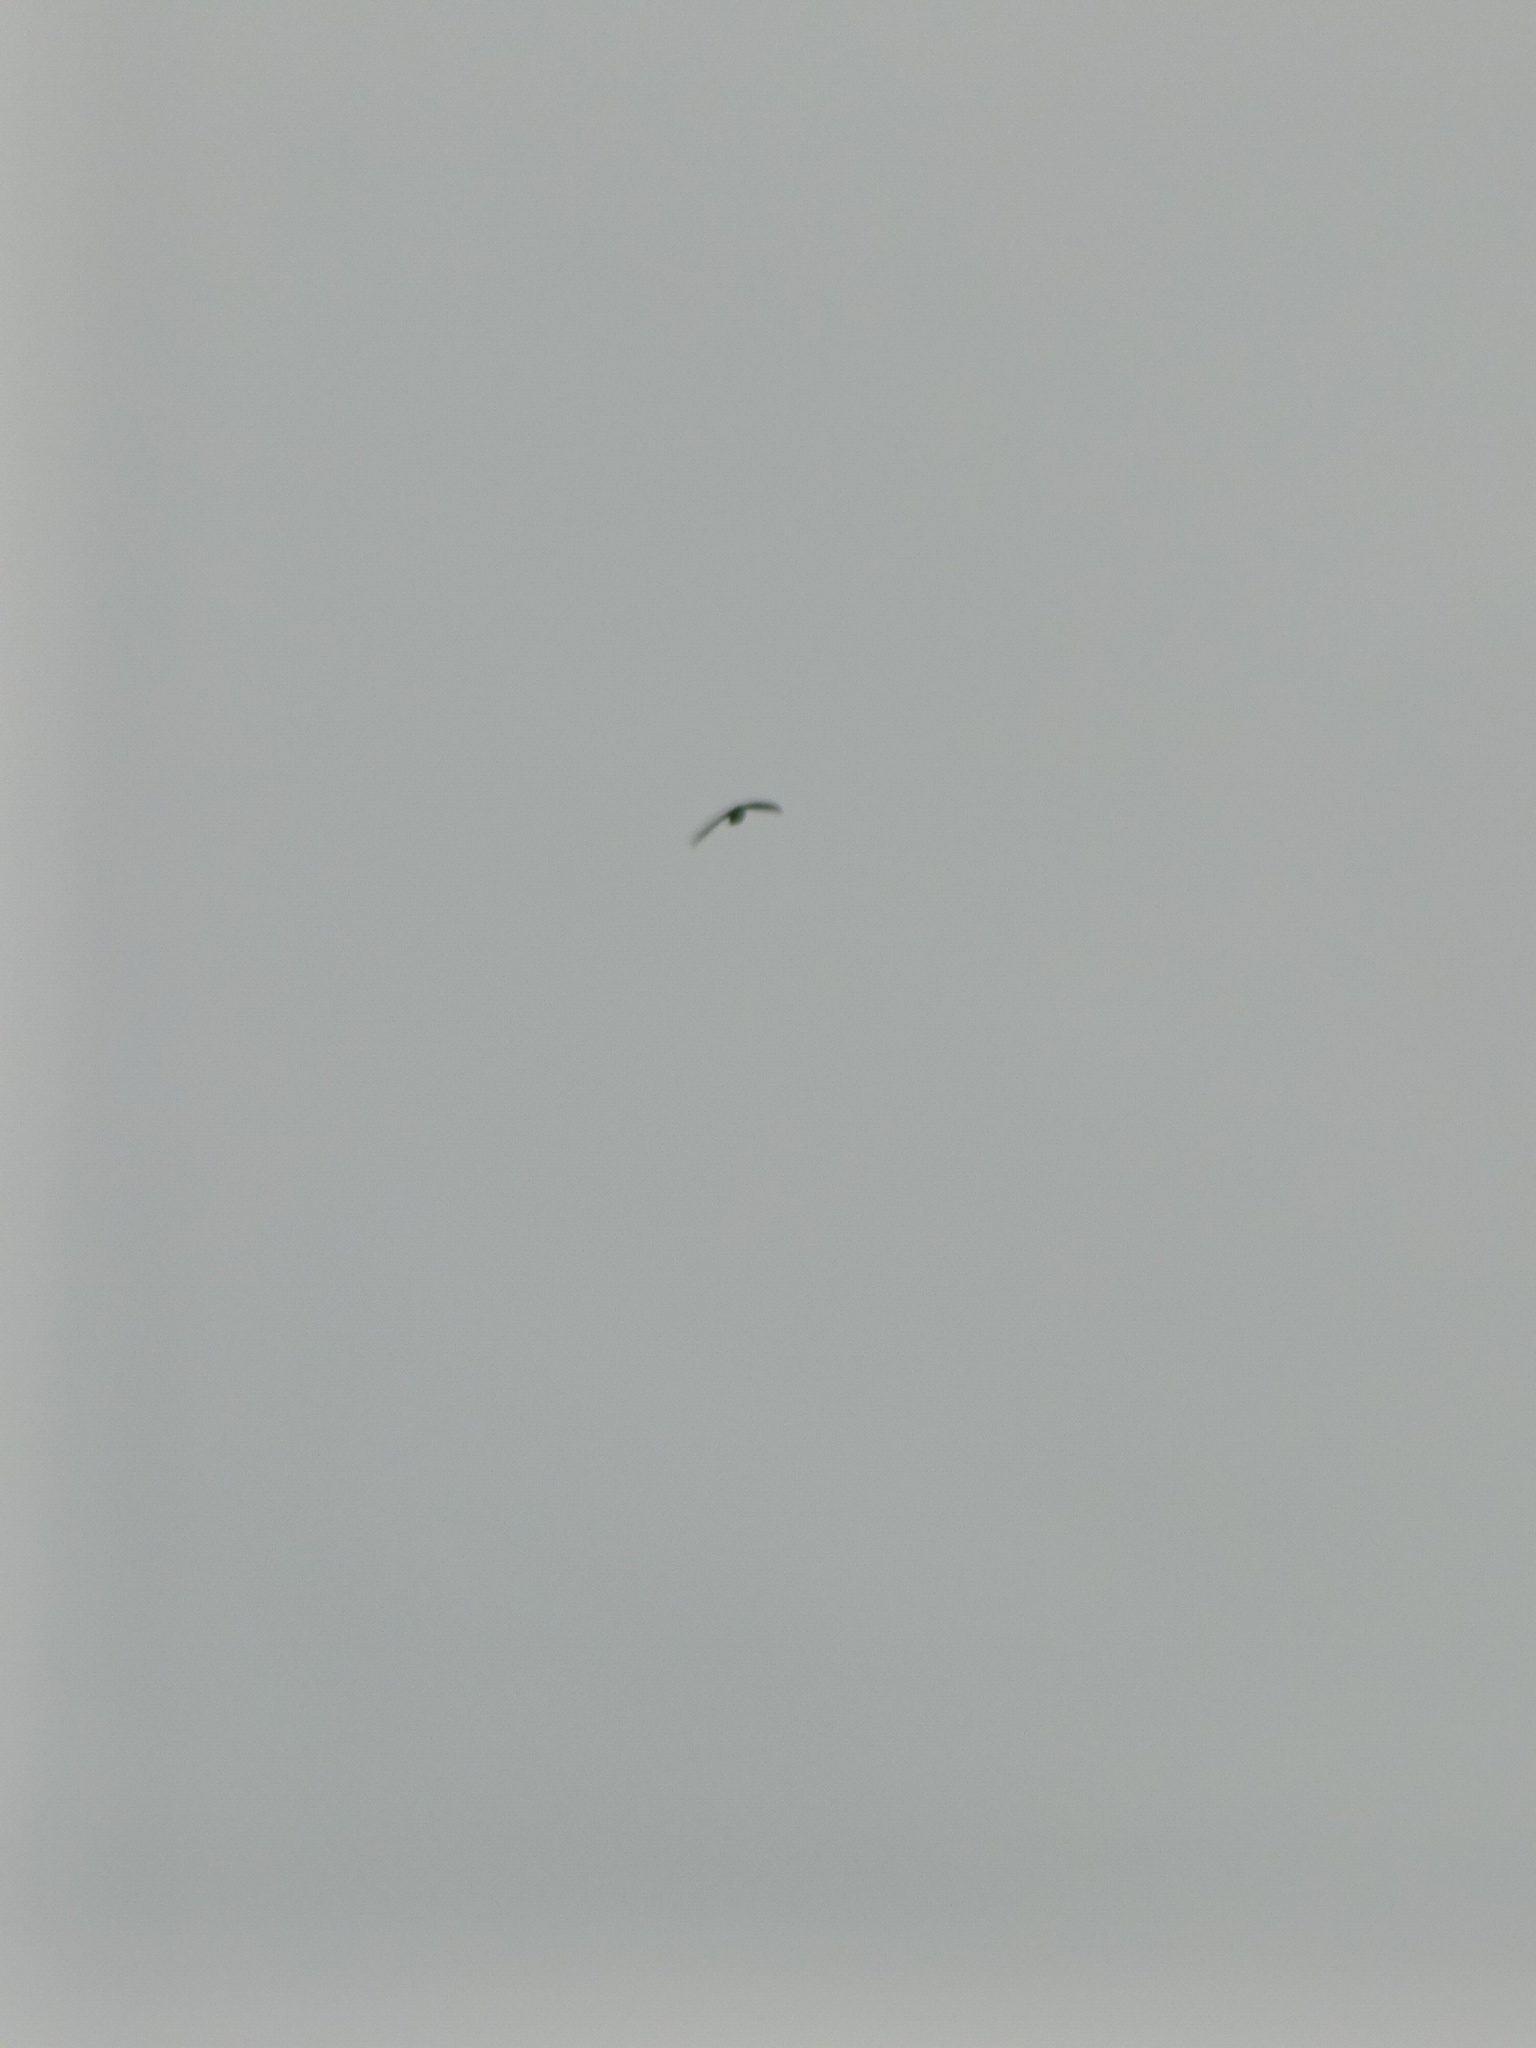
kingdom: Animalia
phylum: Chordata
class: Aves
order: Apodiformes
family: Apodidae
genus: Chaetura
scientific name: Chaetura pelagica
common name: Chimney swift
